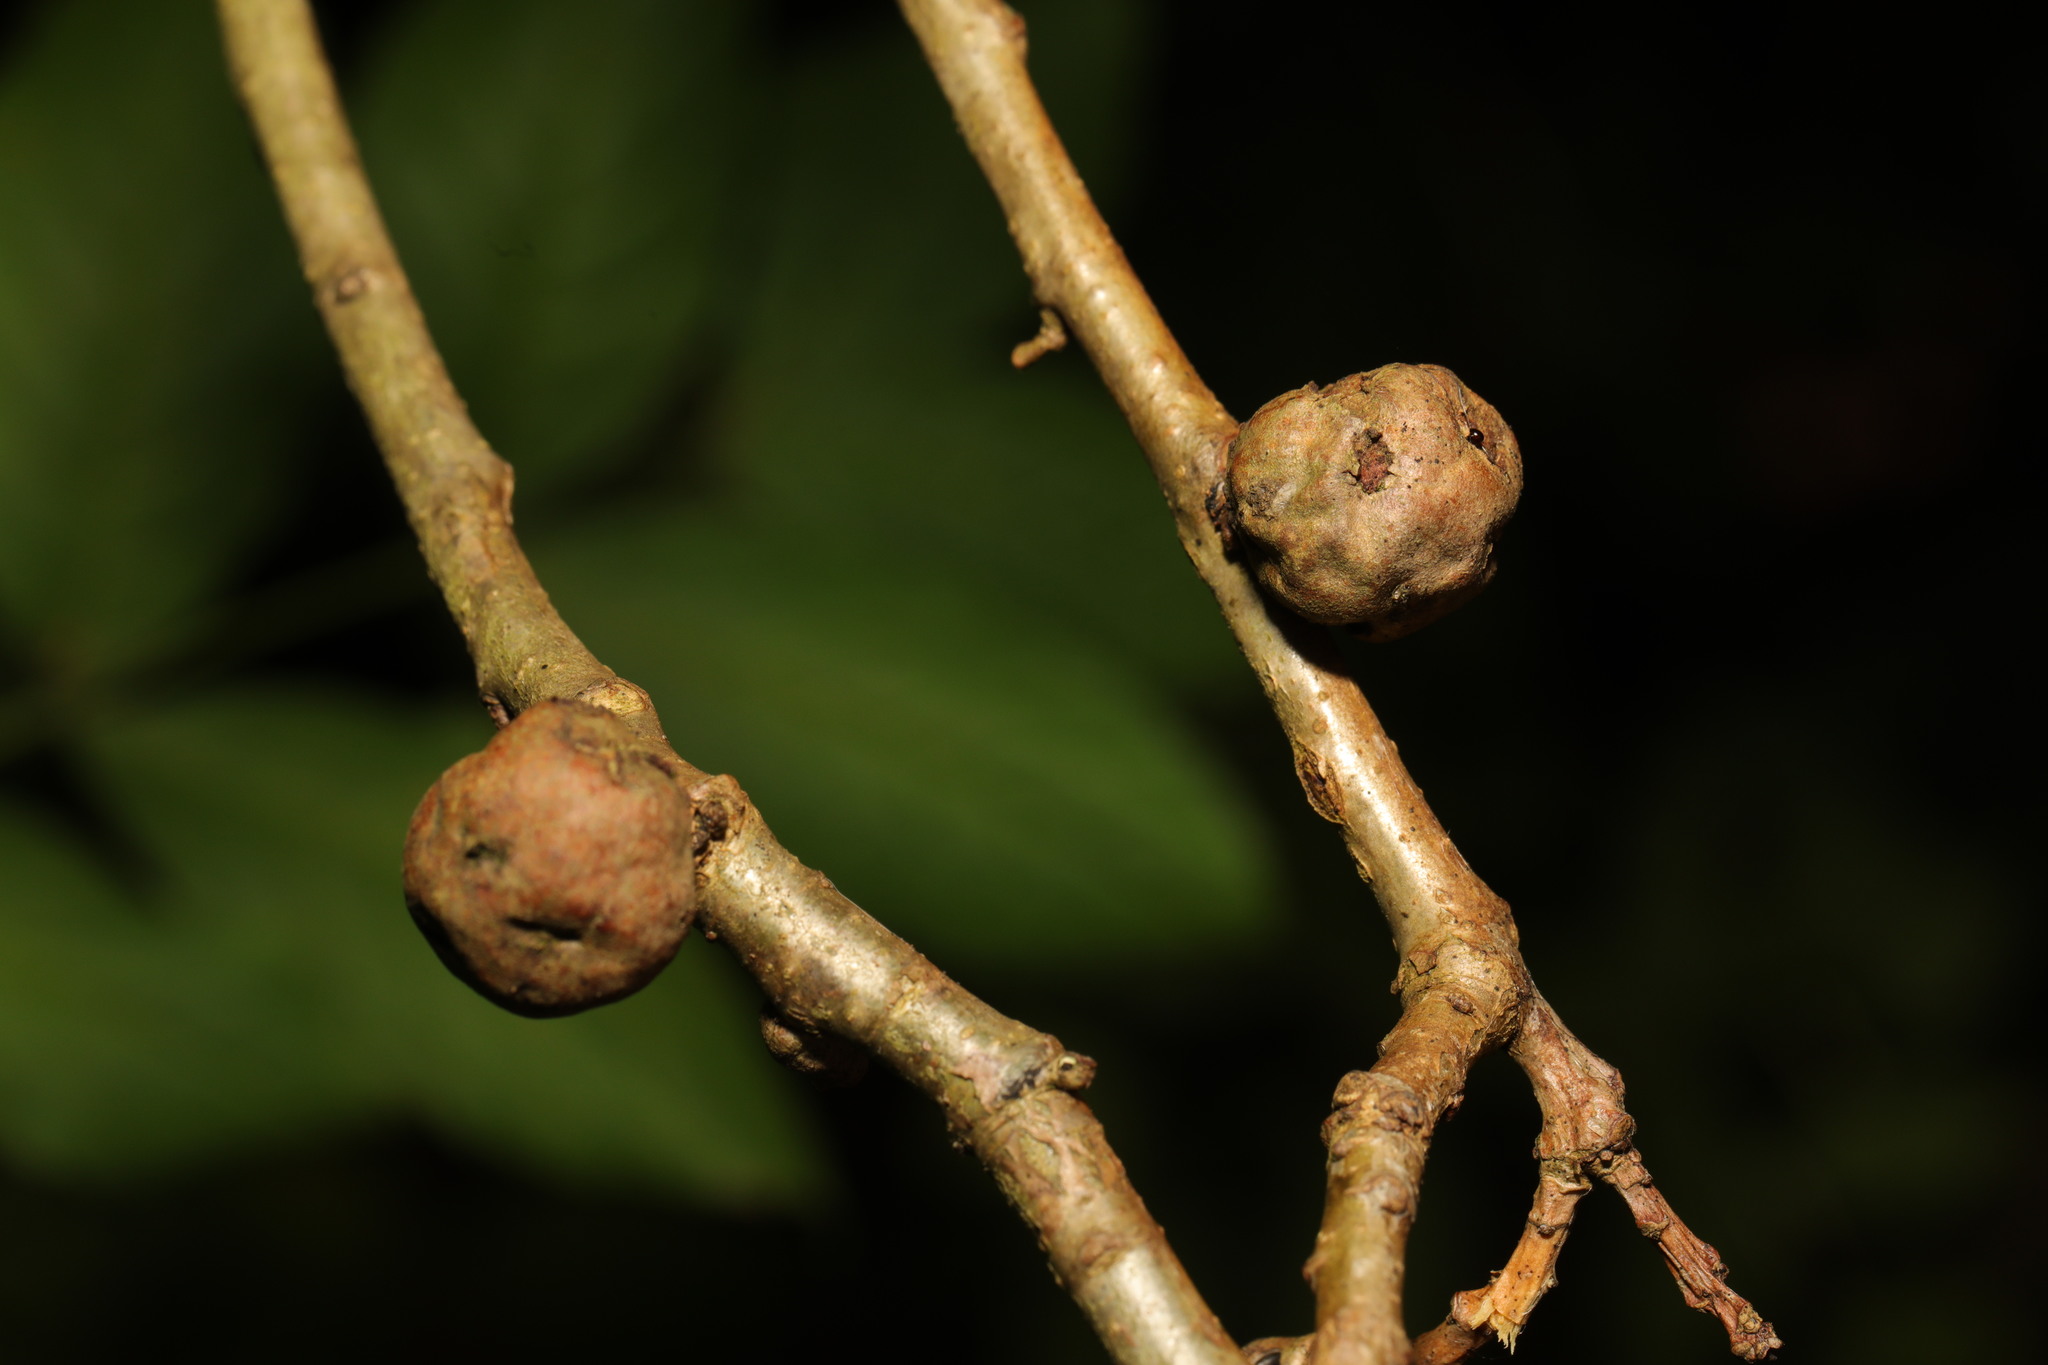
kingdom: Animalia
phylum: Arthropoda
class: Insecta
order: Hymenoptera
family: Cynipidae
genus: Andricus
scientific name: Andricus lignicolus
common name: Cola-nut gall
